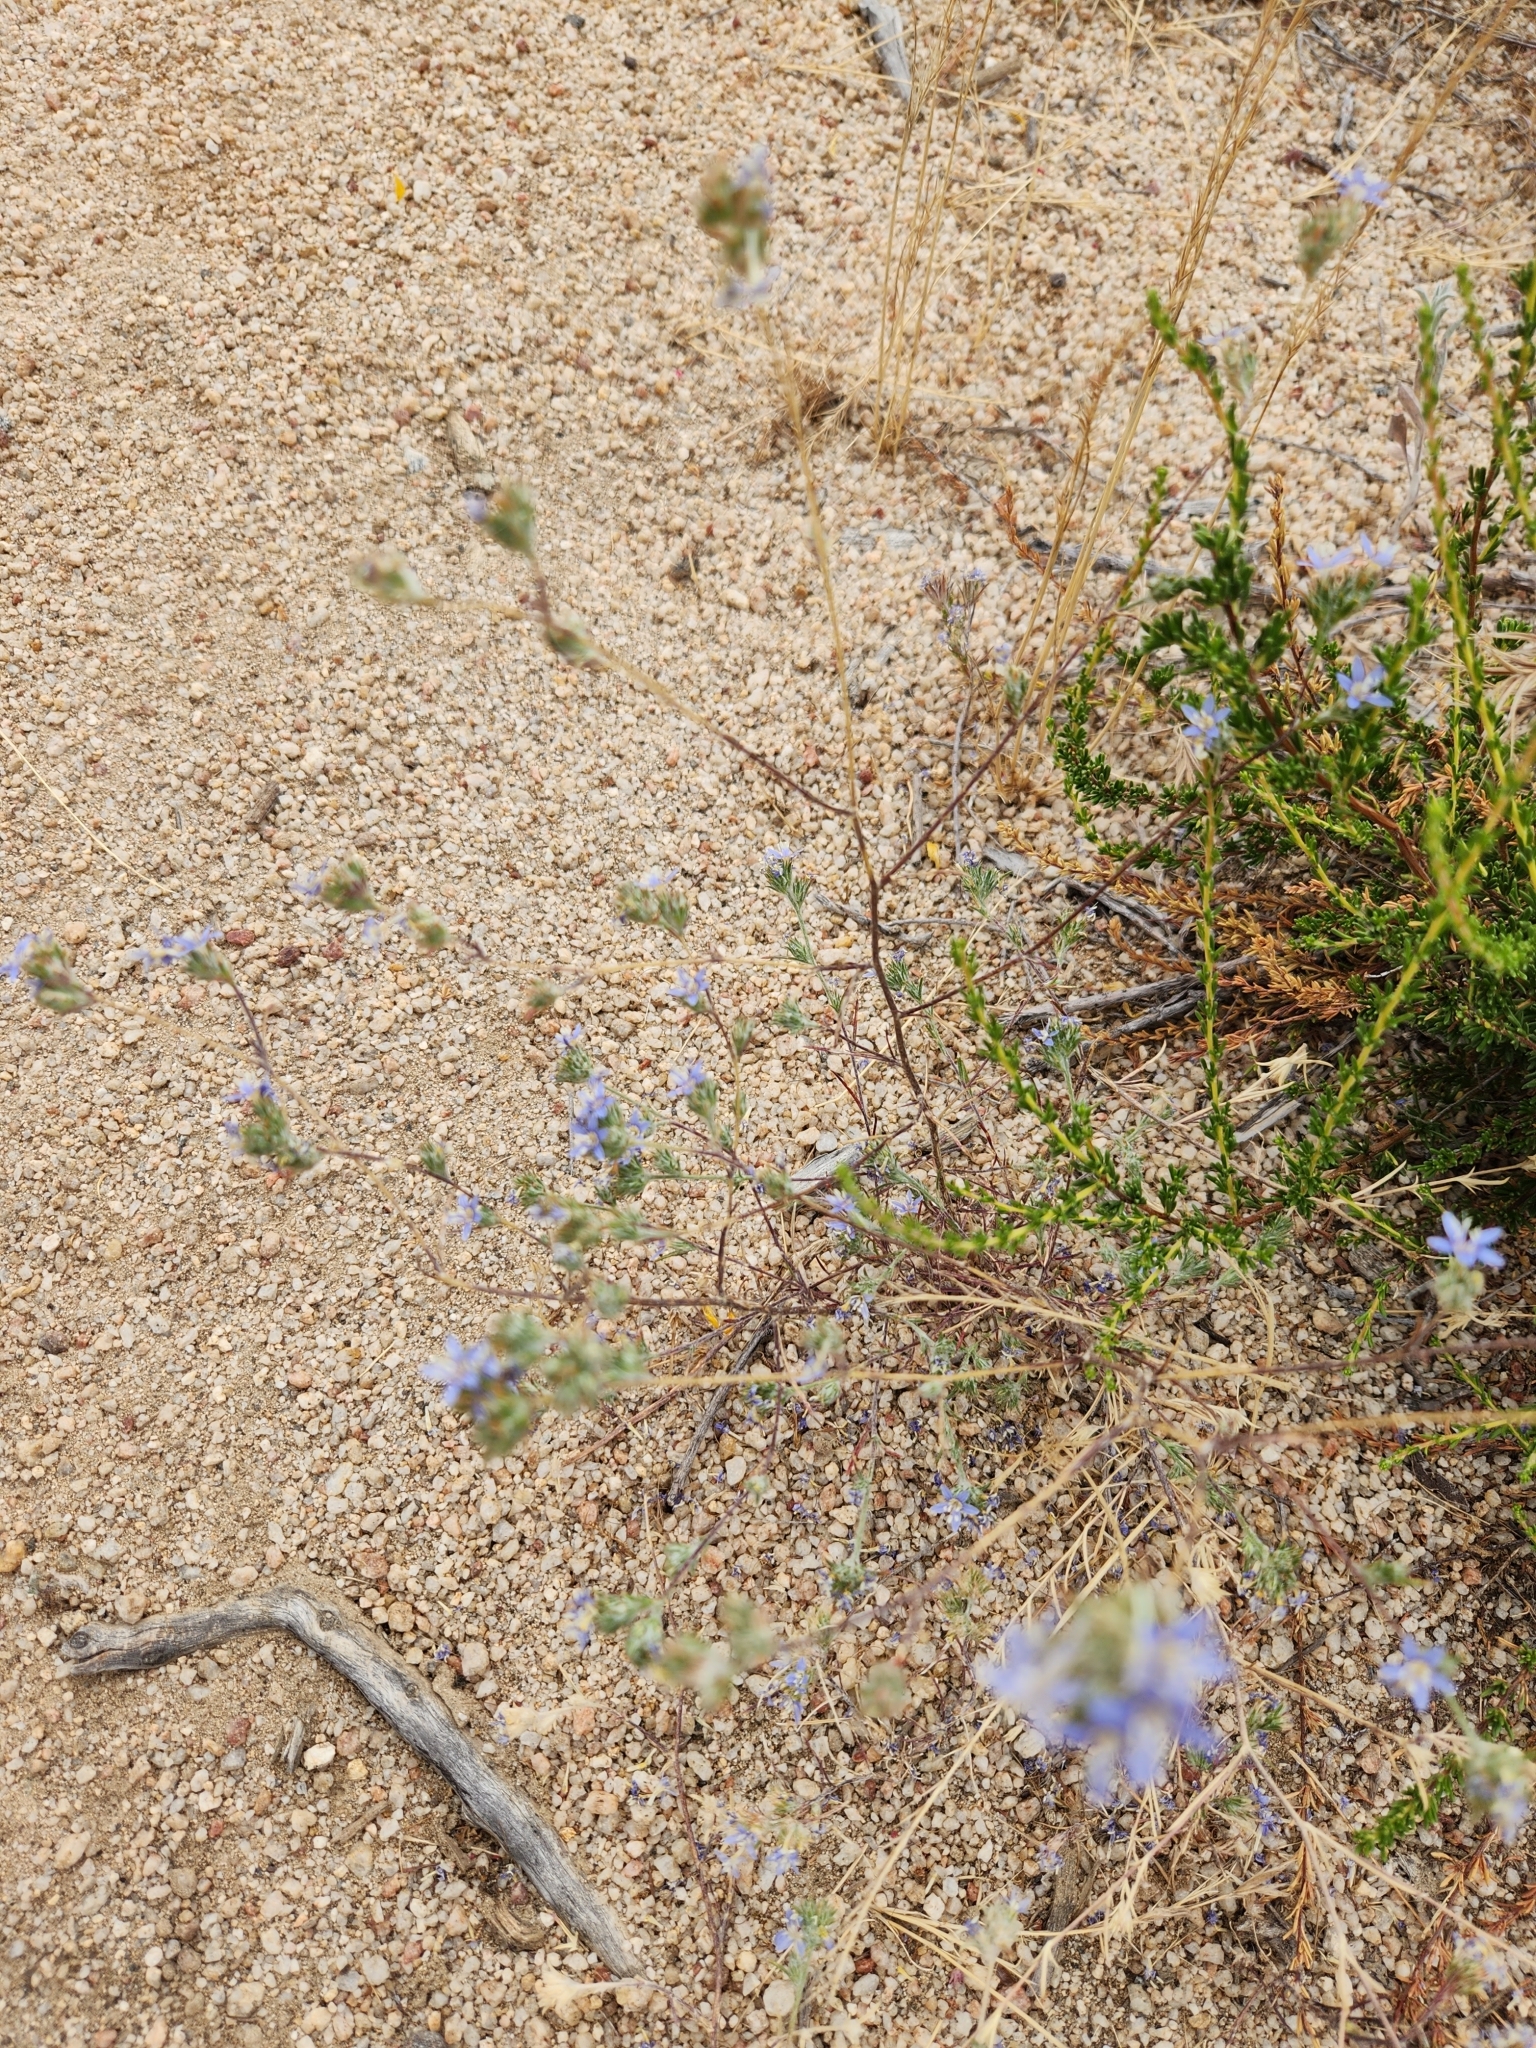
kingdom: Plantae
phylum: Tracheophyta
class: Magnoliopsida
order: Ericales
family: Polemoniaceae
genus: Eriastrum
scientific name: Eriastrum sapphirinum
